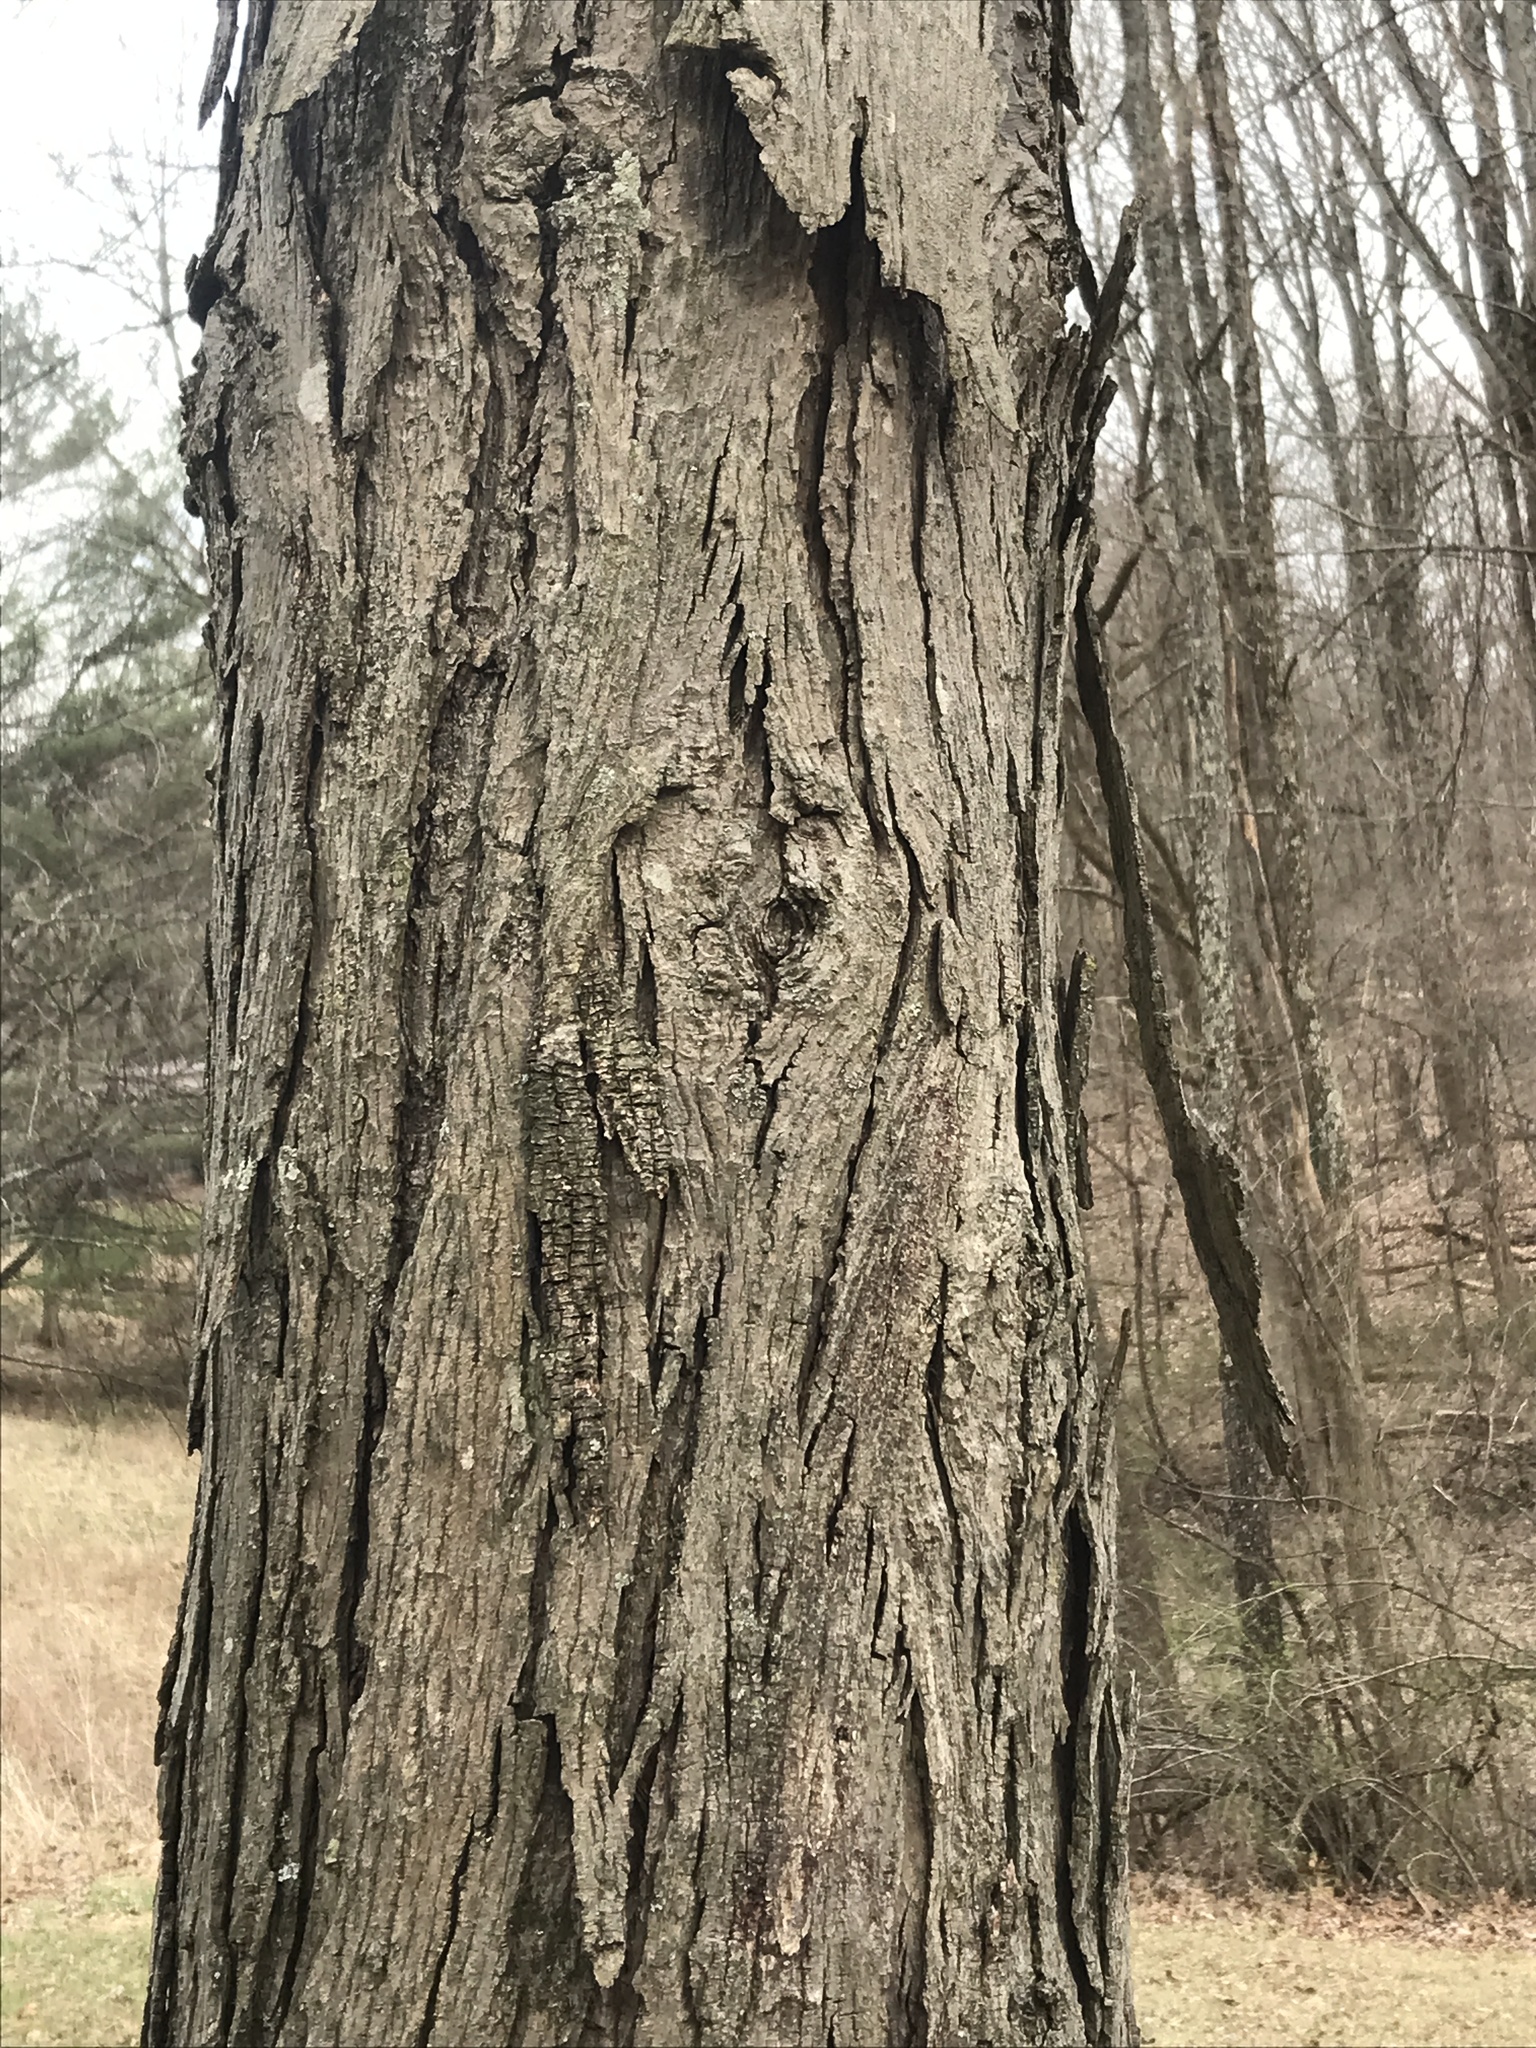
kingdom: Plantae
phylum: Tracheophyta
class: Magnoliopsida
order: Fagales
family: Juglandaceae
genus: Carya
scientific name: Carya ovata
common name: Shagbark hickory
